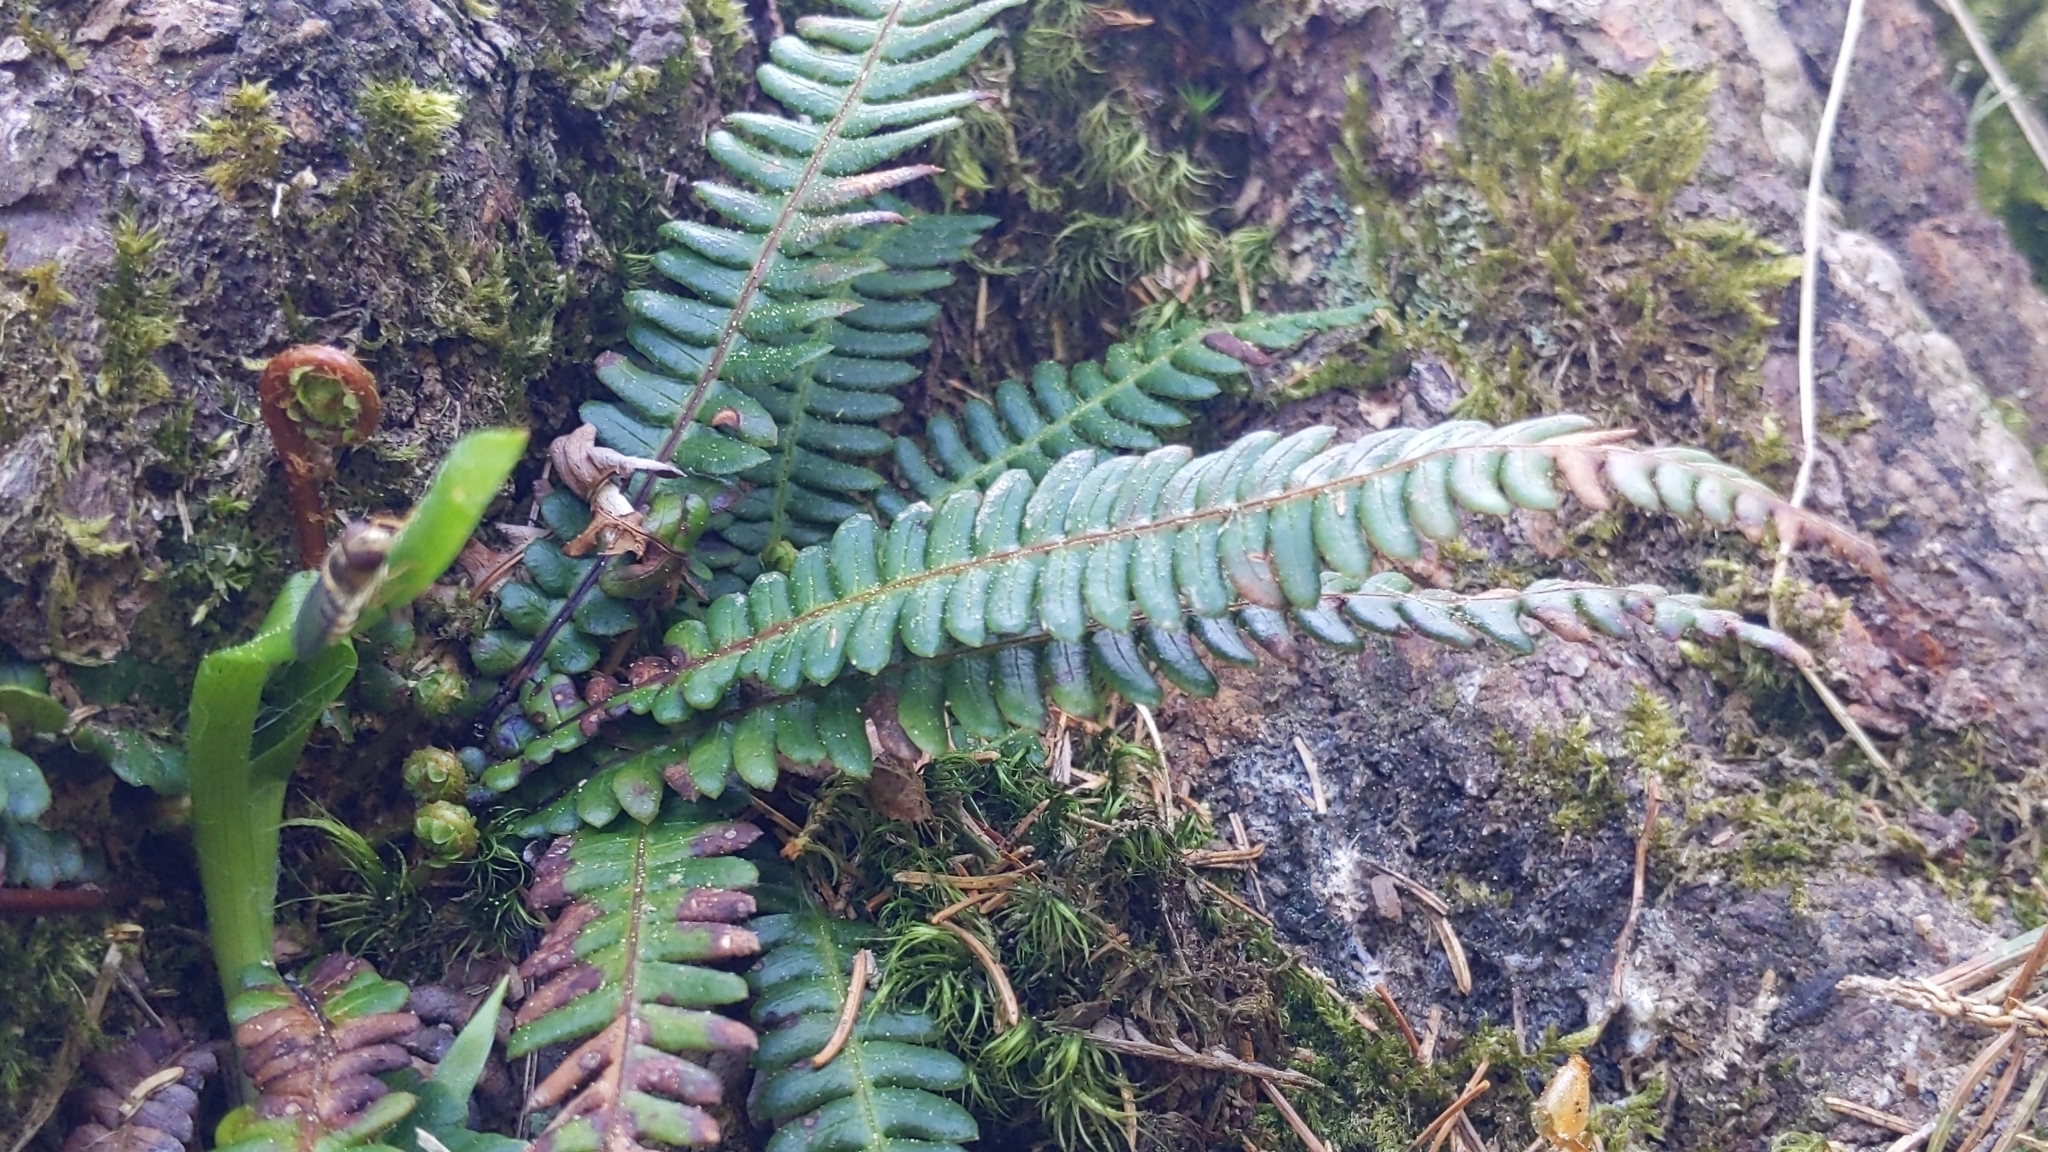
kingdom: Plantae
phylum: Tracheophyta
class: Polypodiopsida
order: Polypodiales
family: Blechnaceae
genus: Struthiopteris
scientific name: Struthiopteris spicant
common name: Deer fern
